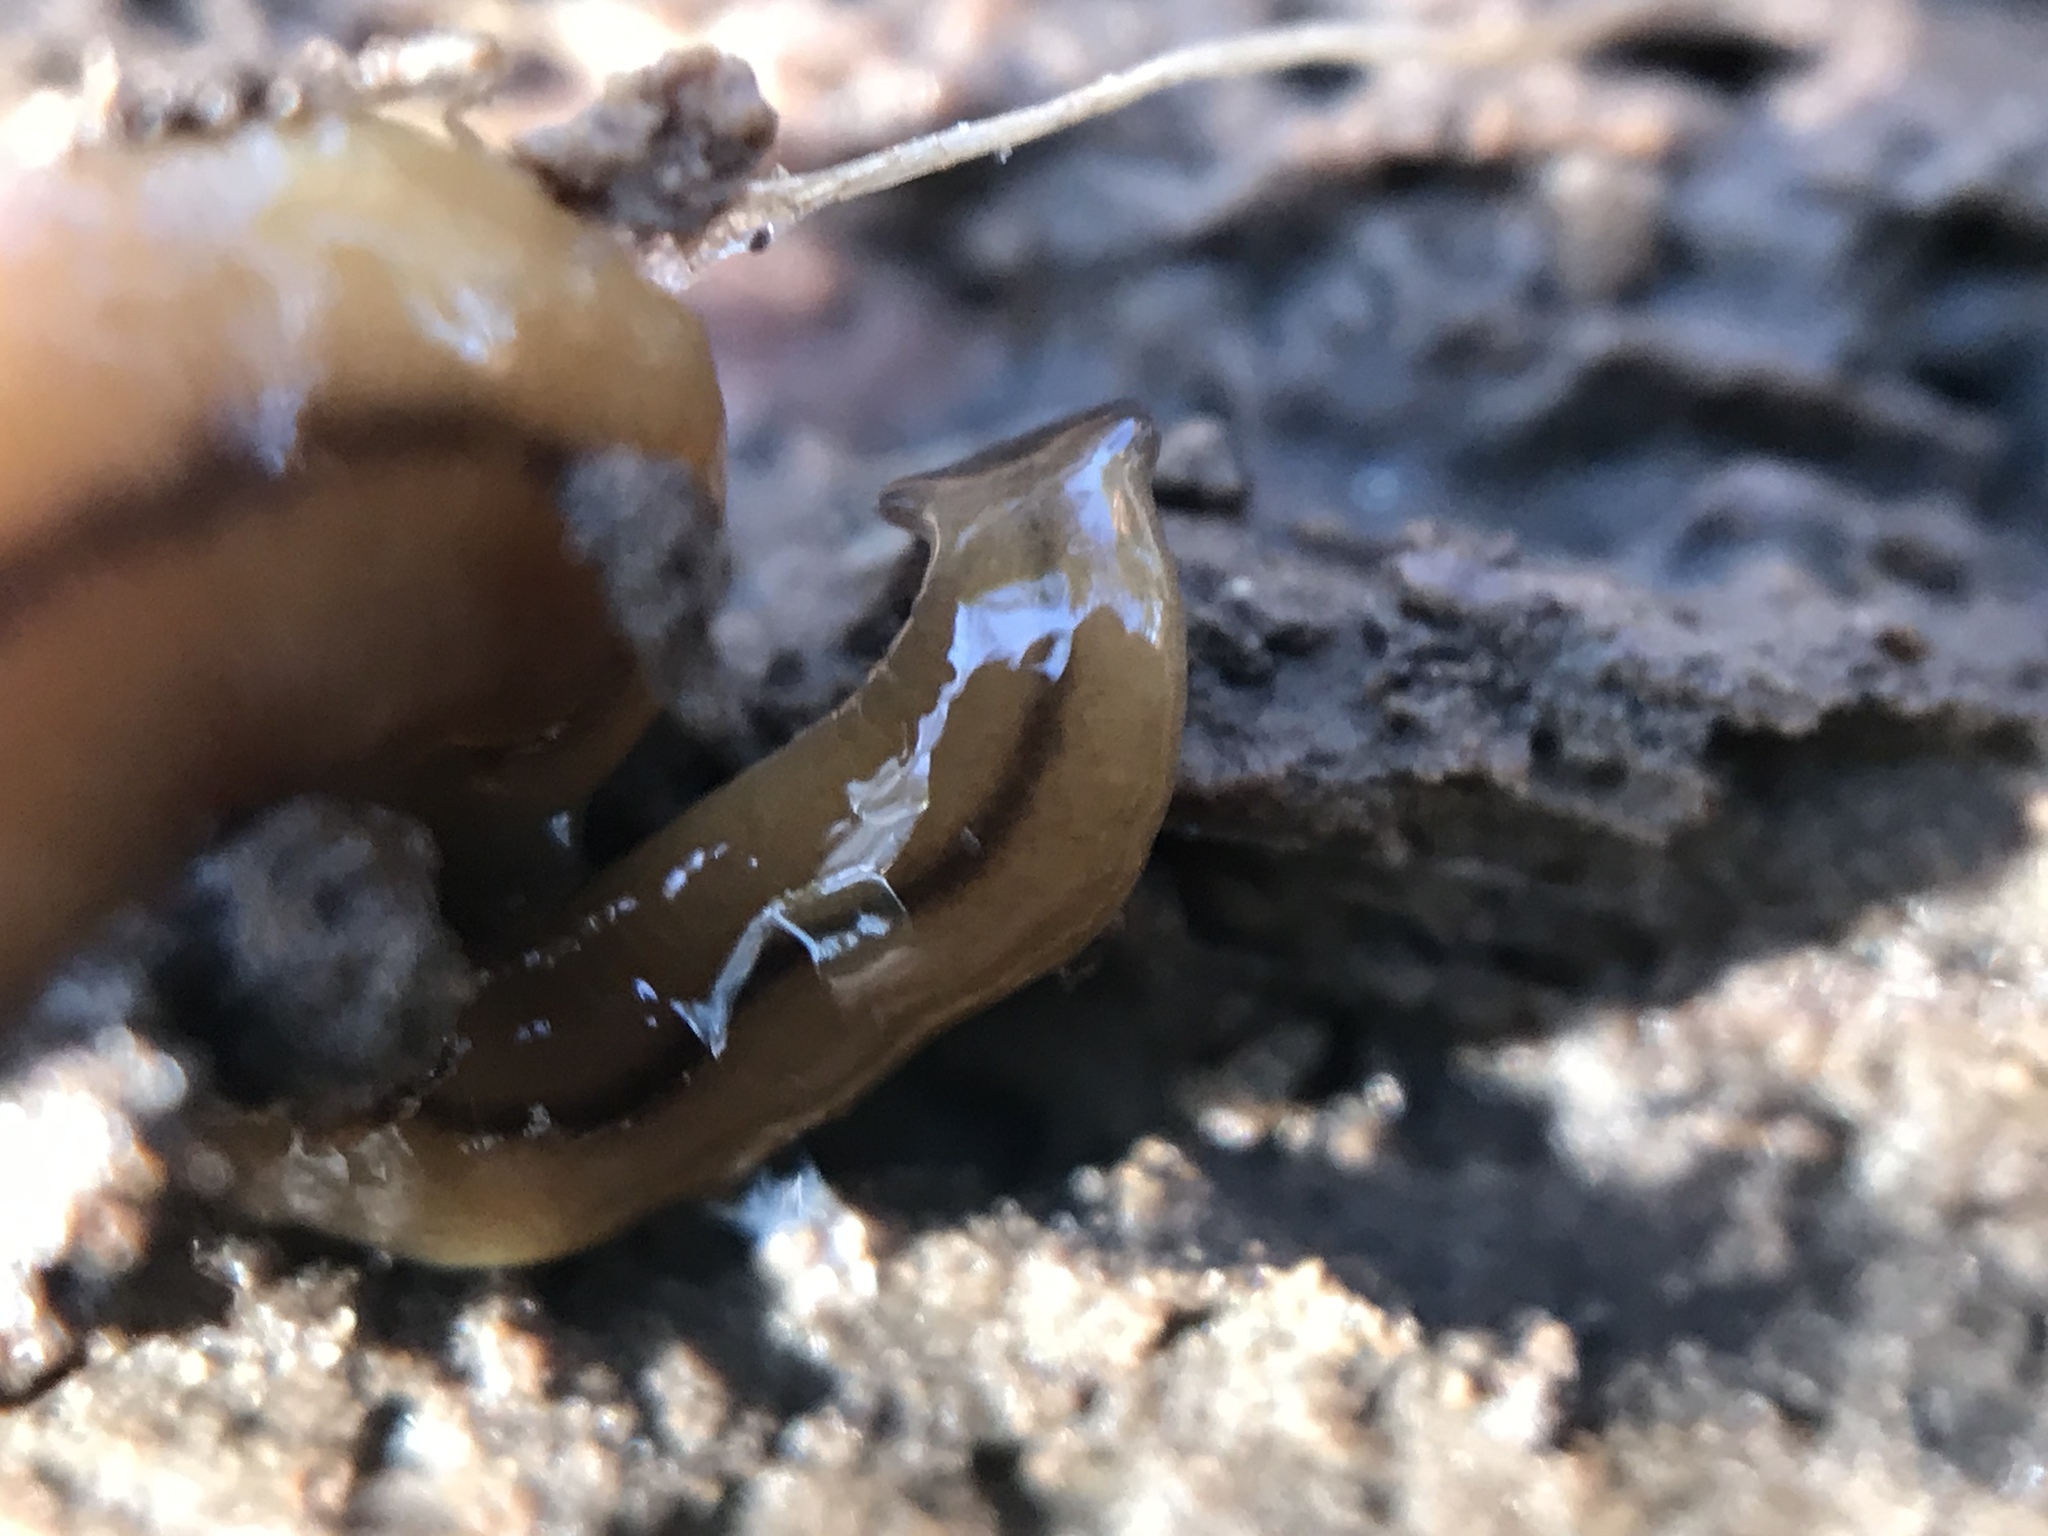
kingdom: Animalia
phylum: Platyhelminthes
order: Tricladida
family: Geoplanidae
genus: Bipalium
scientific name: Bipalium adventitium
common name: Land planarian
